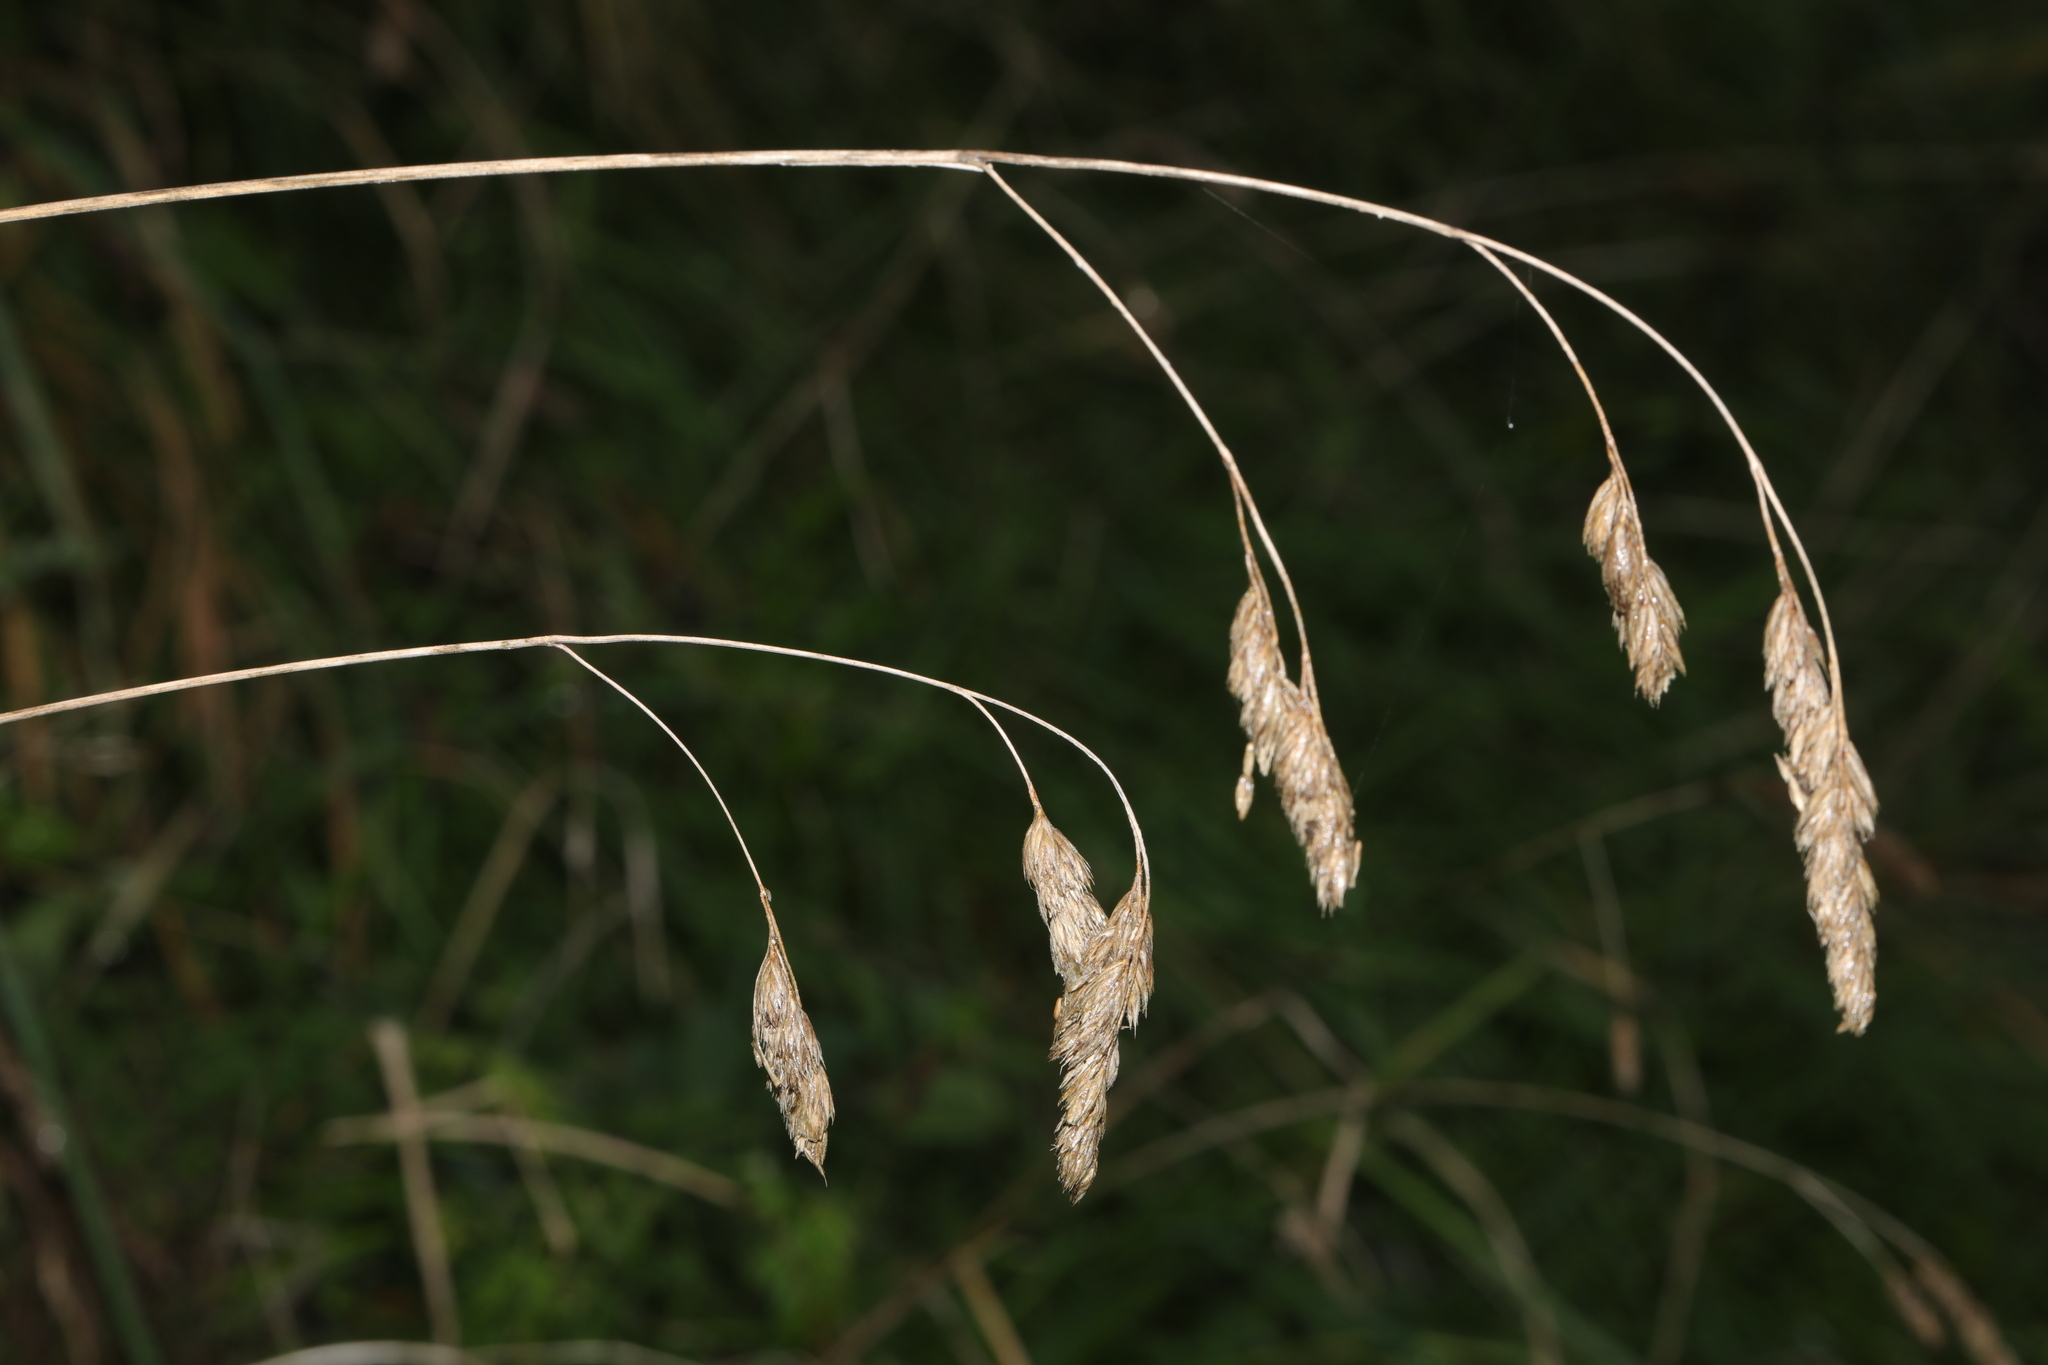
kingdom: Plantae
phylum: Tracheophyta
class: Liliopsida
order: Poales
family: Poaceae
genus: Dactylis
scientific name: Dactylis glomerata
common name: Orchardgrass
